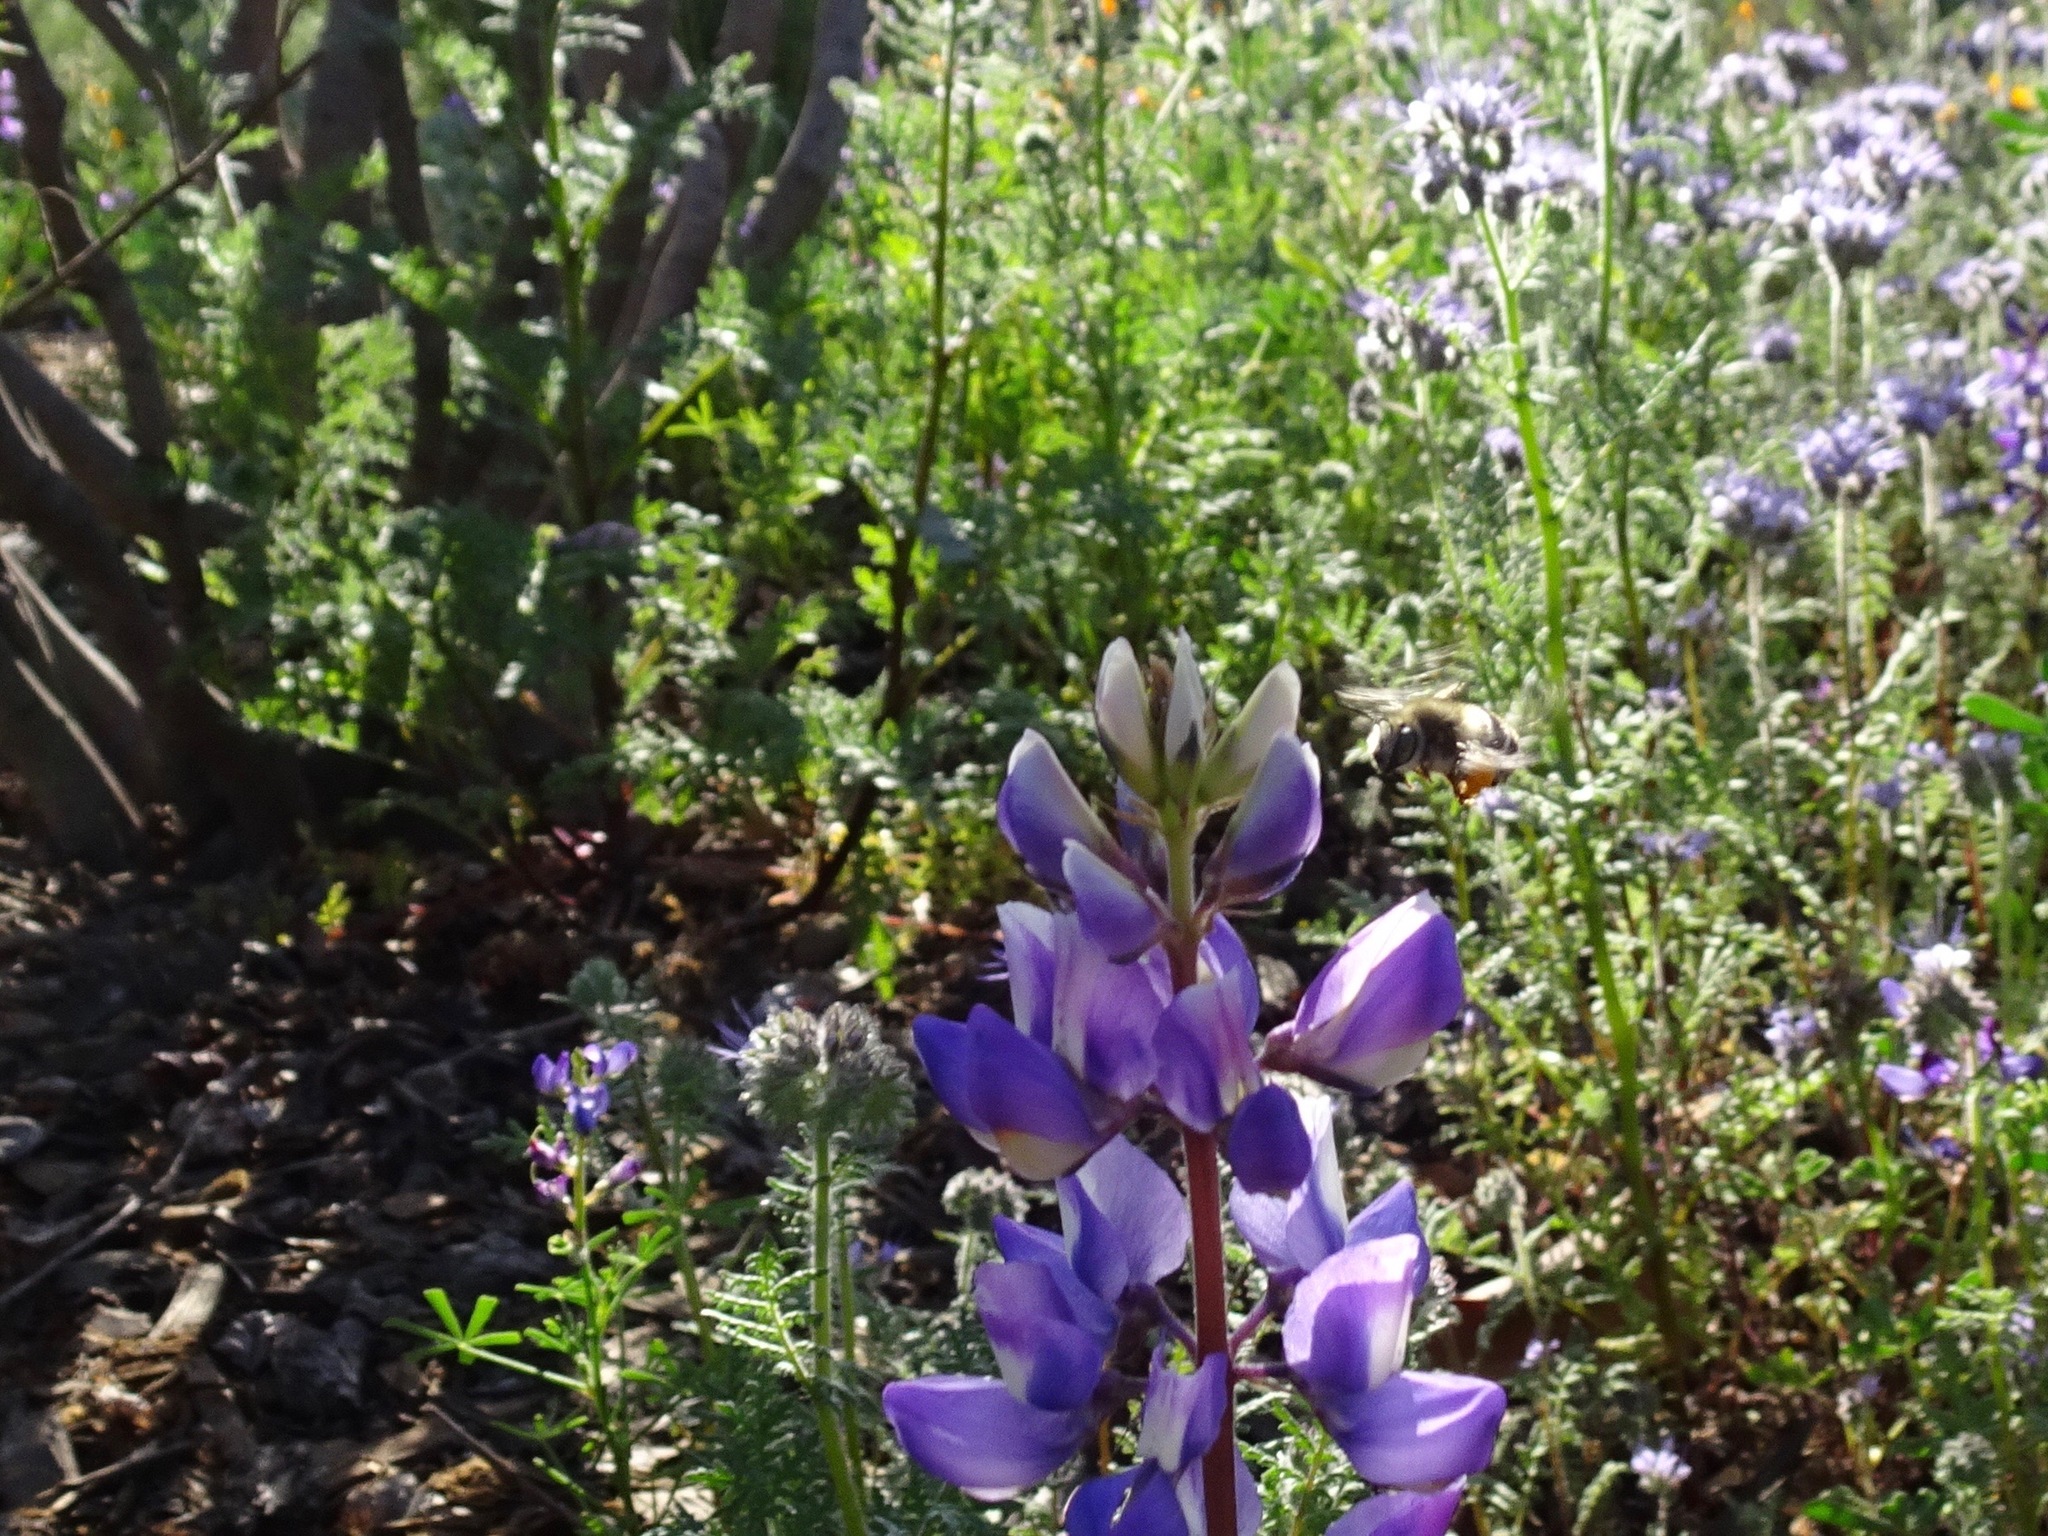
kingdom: Animalia
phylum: Arthropoda
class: Insecta
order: Hymenoptera
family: Apidae
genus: Anthophora
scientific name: Anthophora californica
